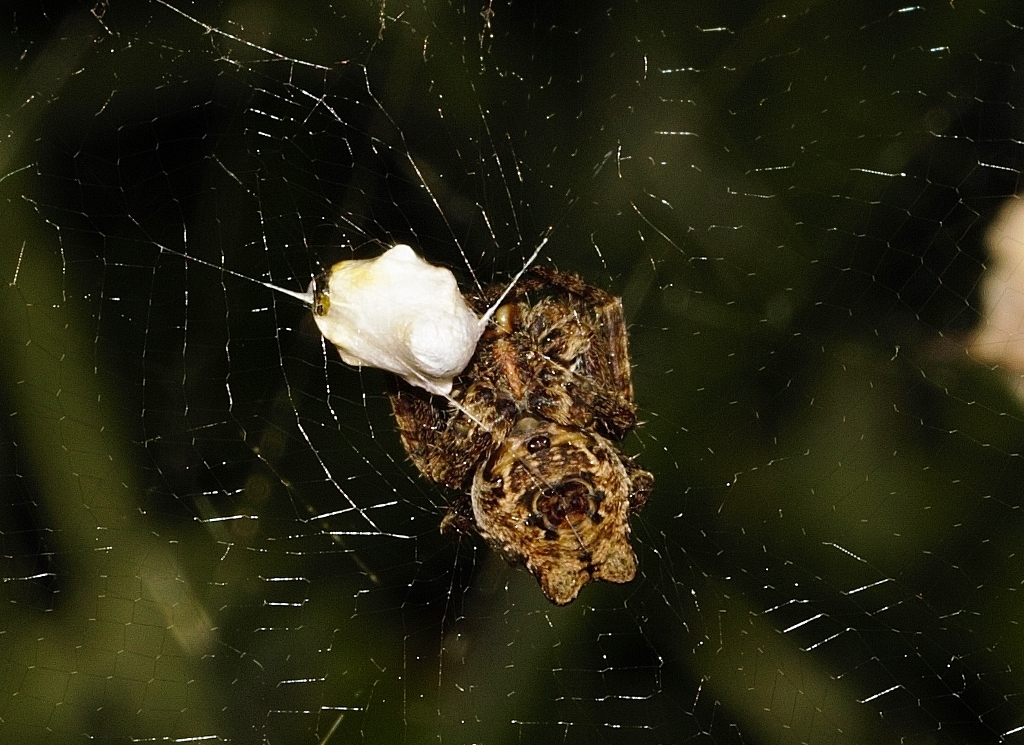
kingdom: Animalia
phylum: Arthropoda
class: Arachnida
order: Araneae
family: Araneidae
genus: Cyrtophora
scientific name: Cyrtophora citricola
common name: Orb weavers
